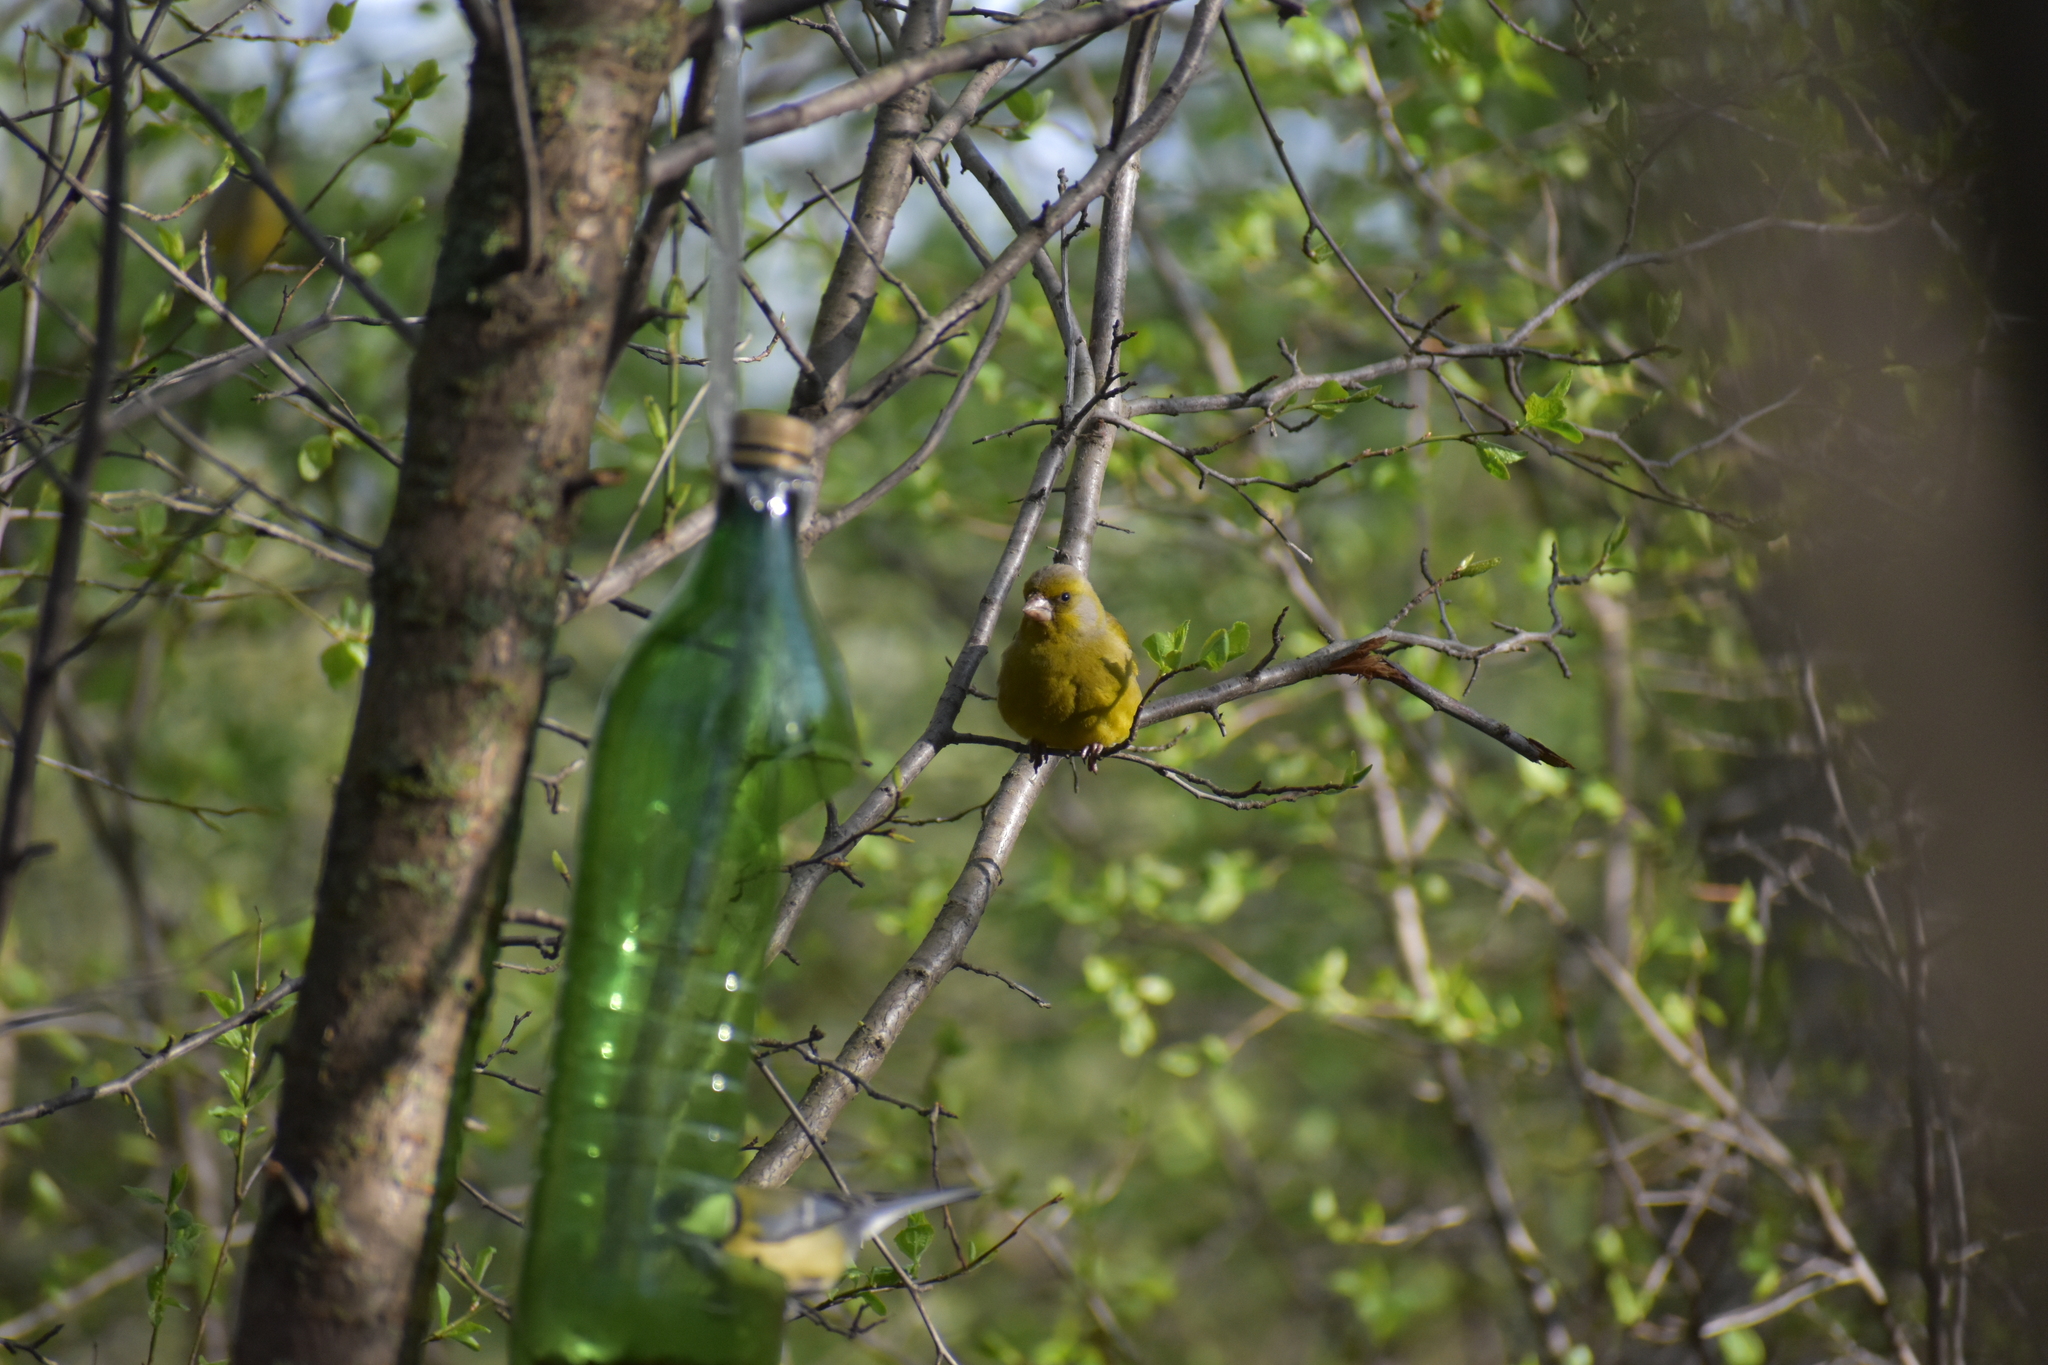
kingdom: Plantae
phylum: Tracheophyta
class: Liliopsida
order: Poales
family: Poaceae
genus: Chloris
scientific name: Chloris chloris
